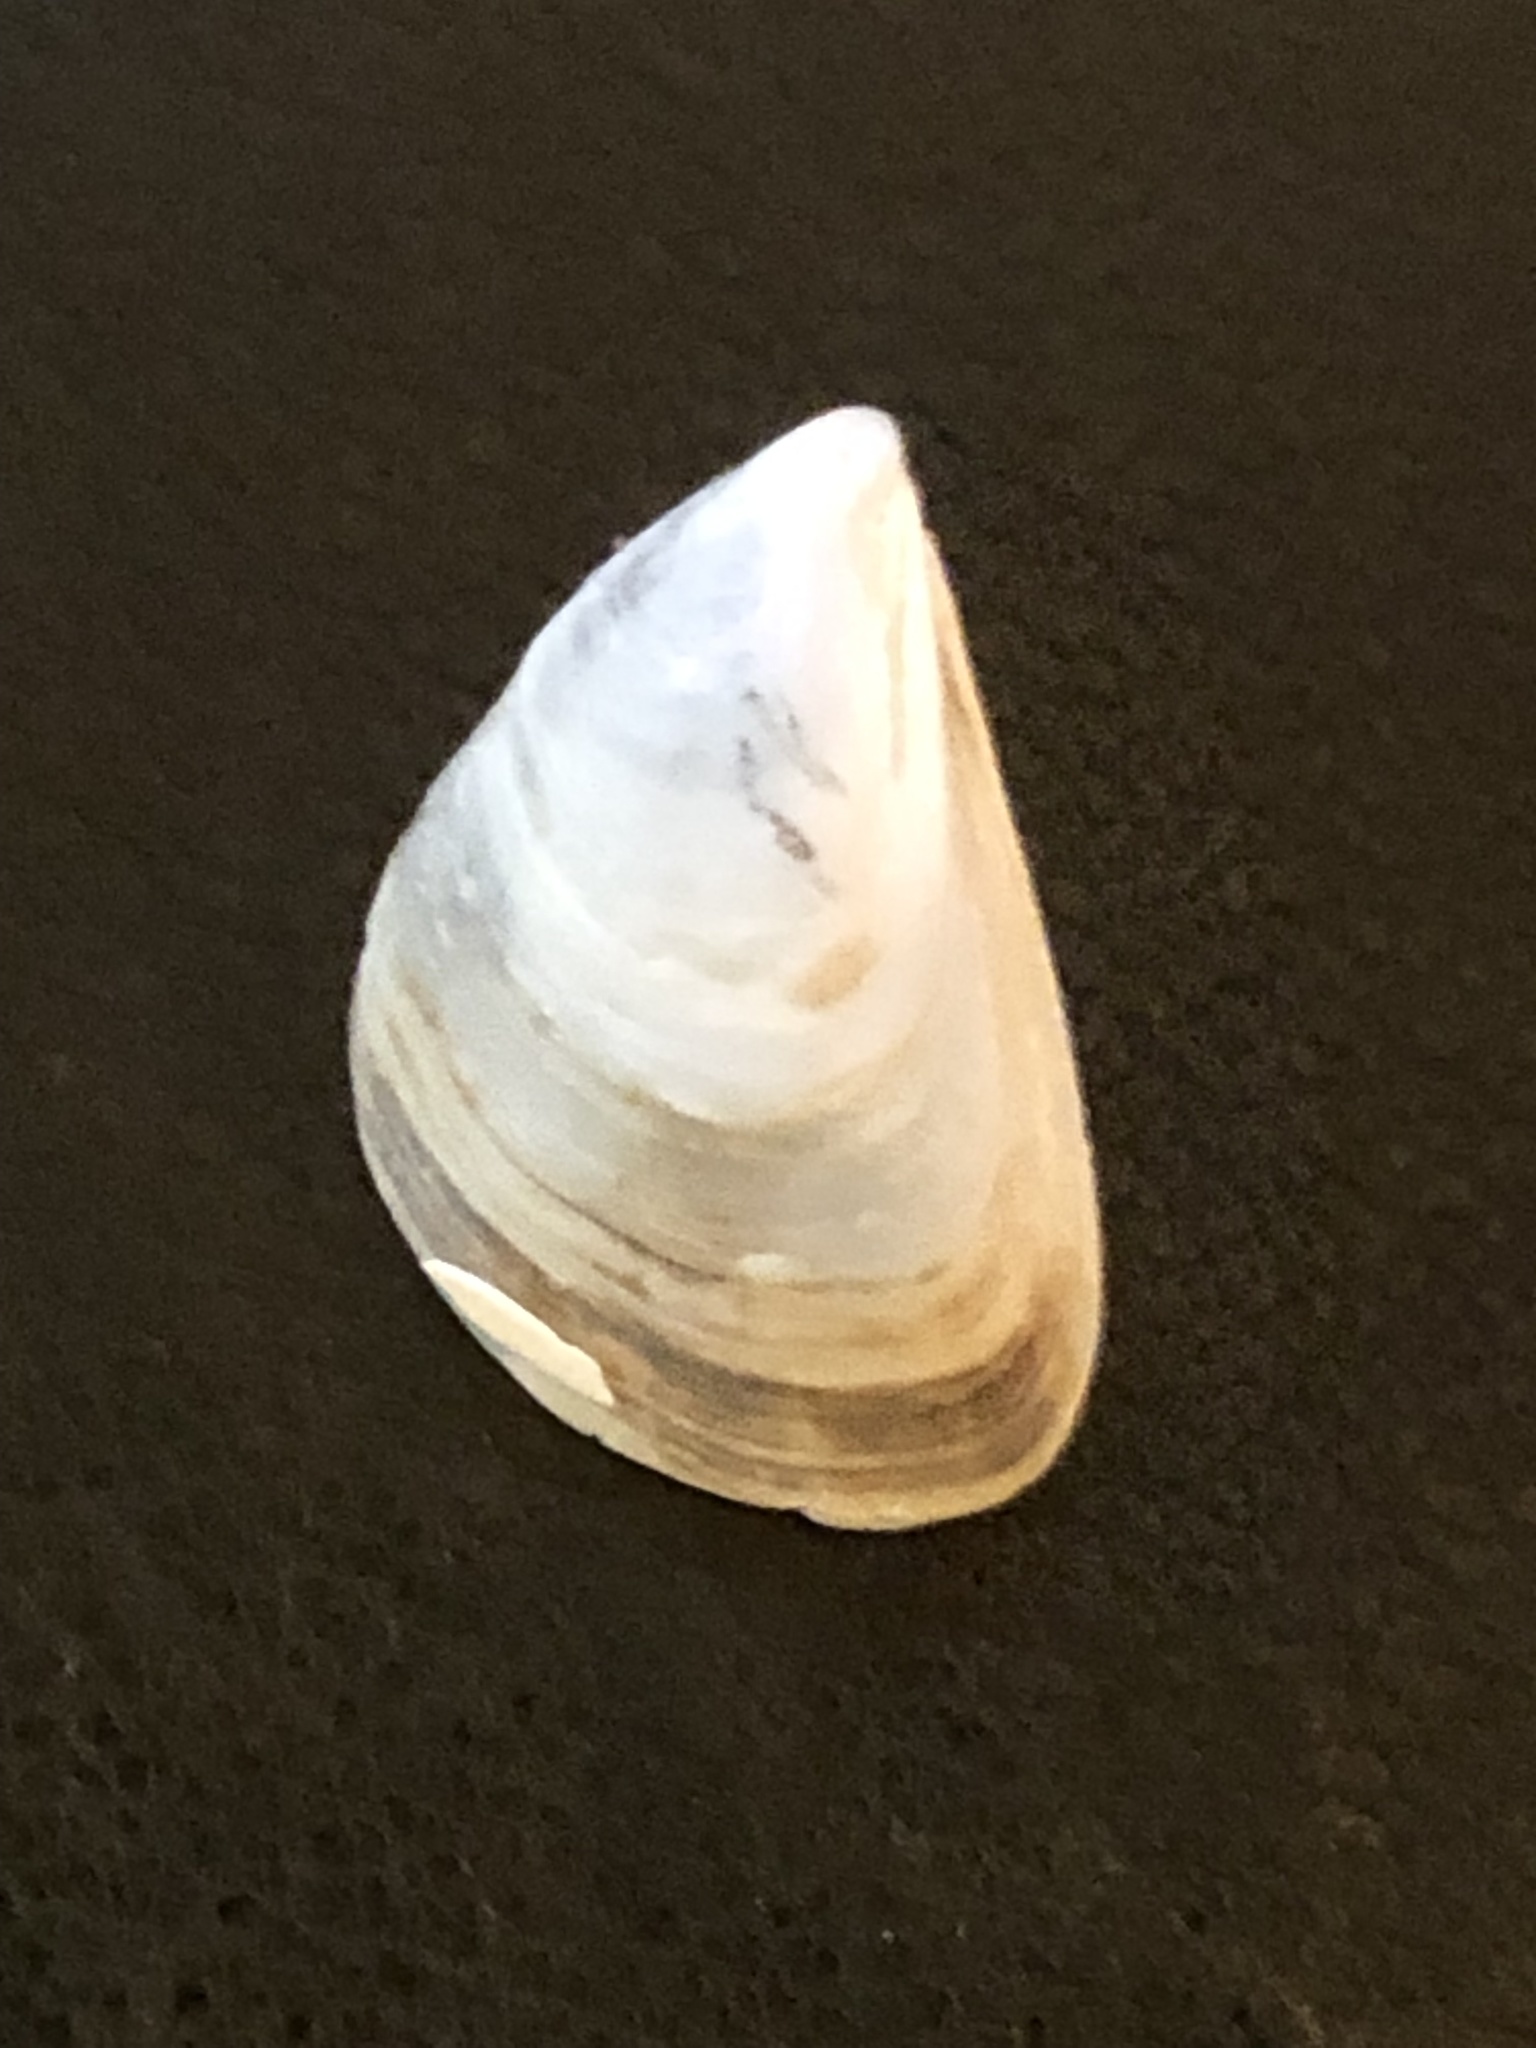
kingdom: Animalia
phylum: Mollusca
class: Bivalvia
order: Myida
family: Dreissenidae
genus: Dreissena
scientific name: Dreissena bugensis
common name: Quagga mussel
